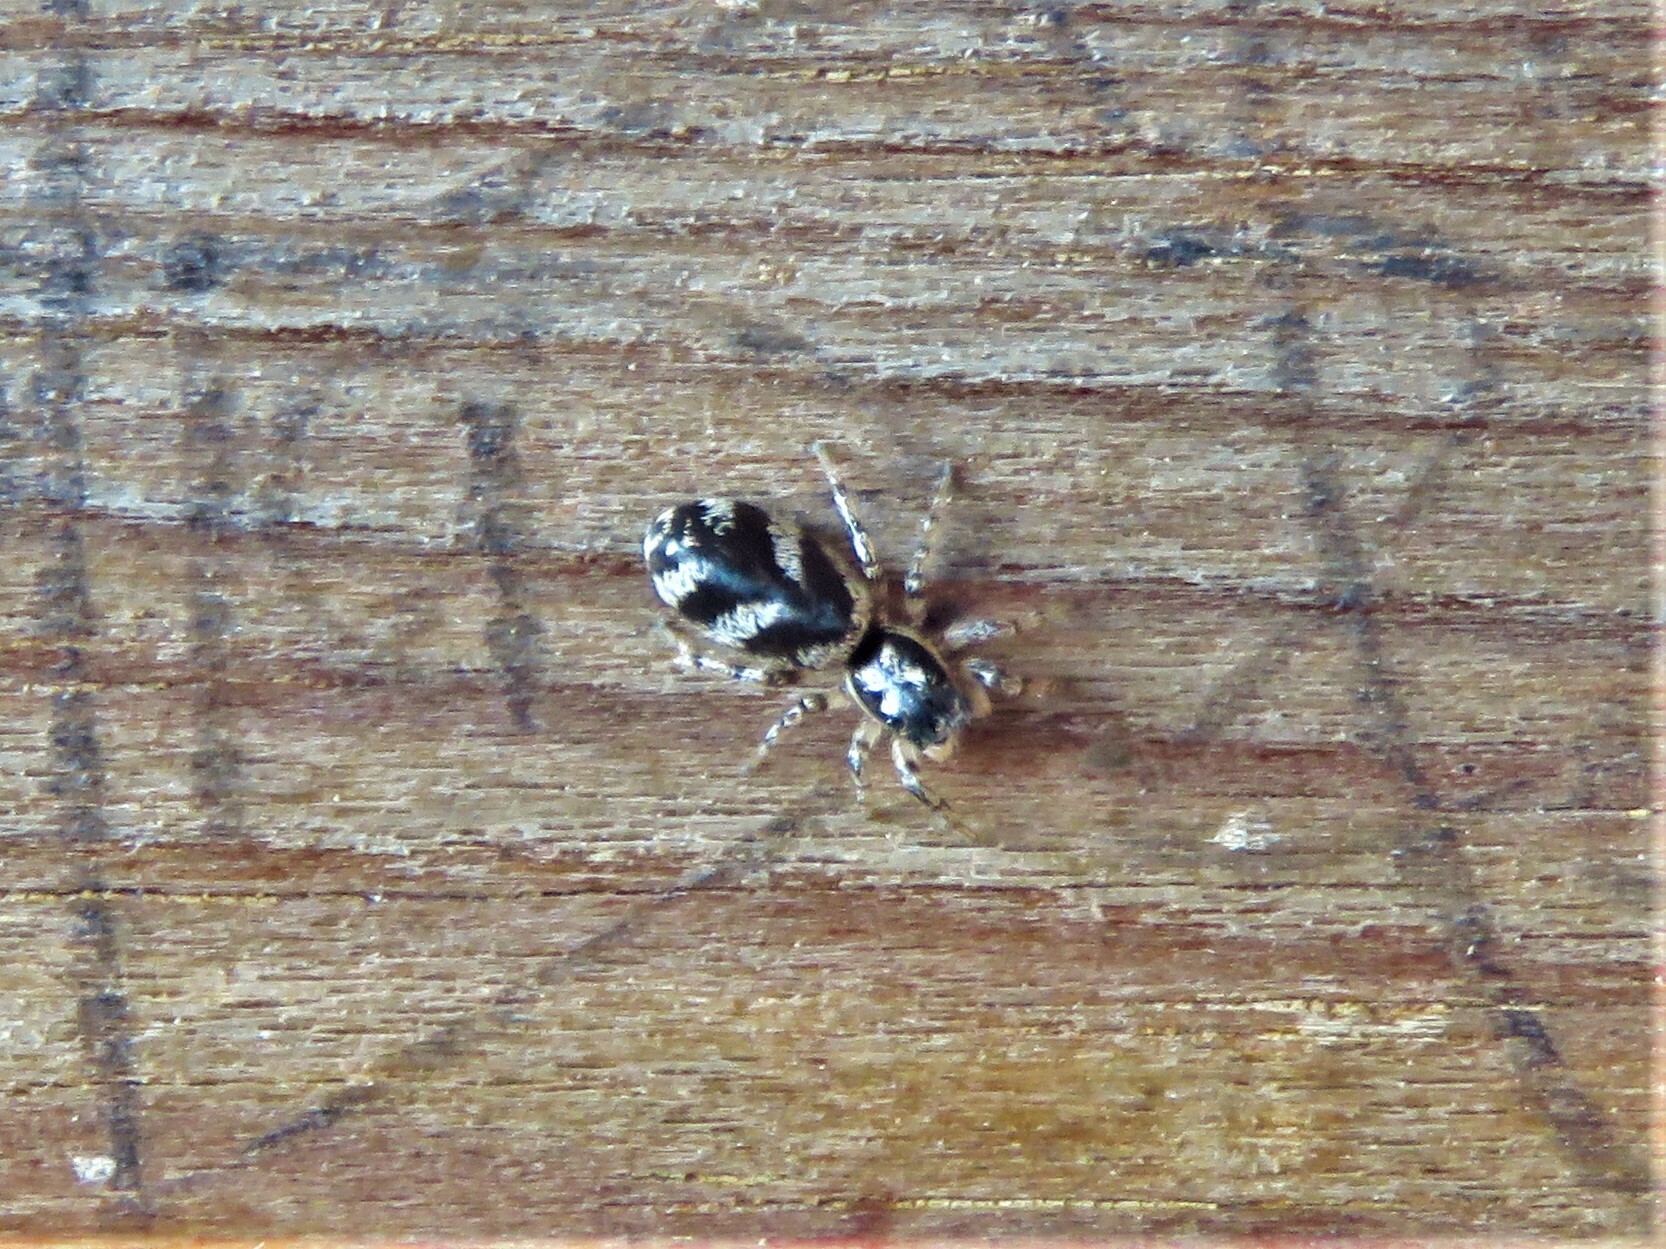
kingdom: Animalia
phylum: Arthropoda
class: Arachnida
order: Araneae
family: Salticidae
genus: Salticus
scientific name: Salticus scenicus
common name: Zebra jumper
